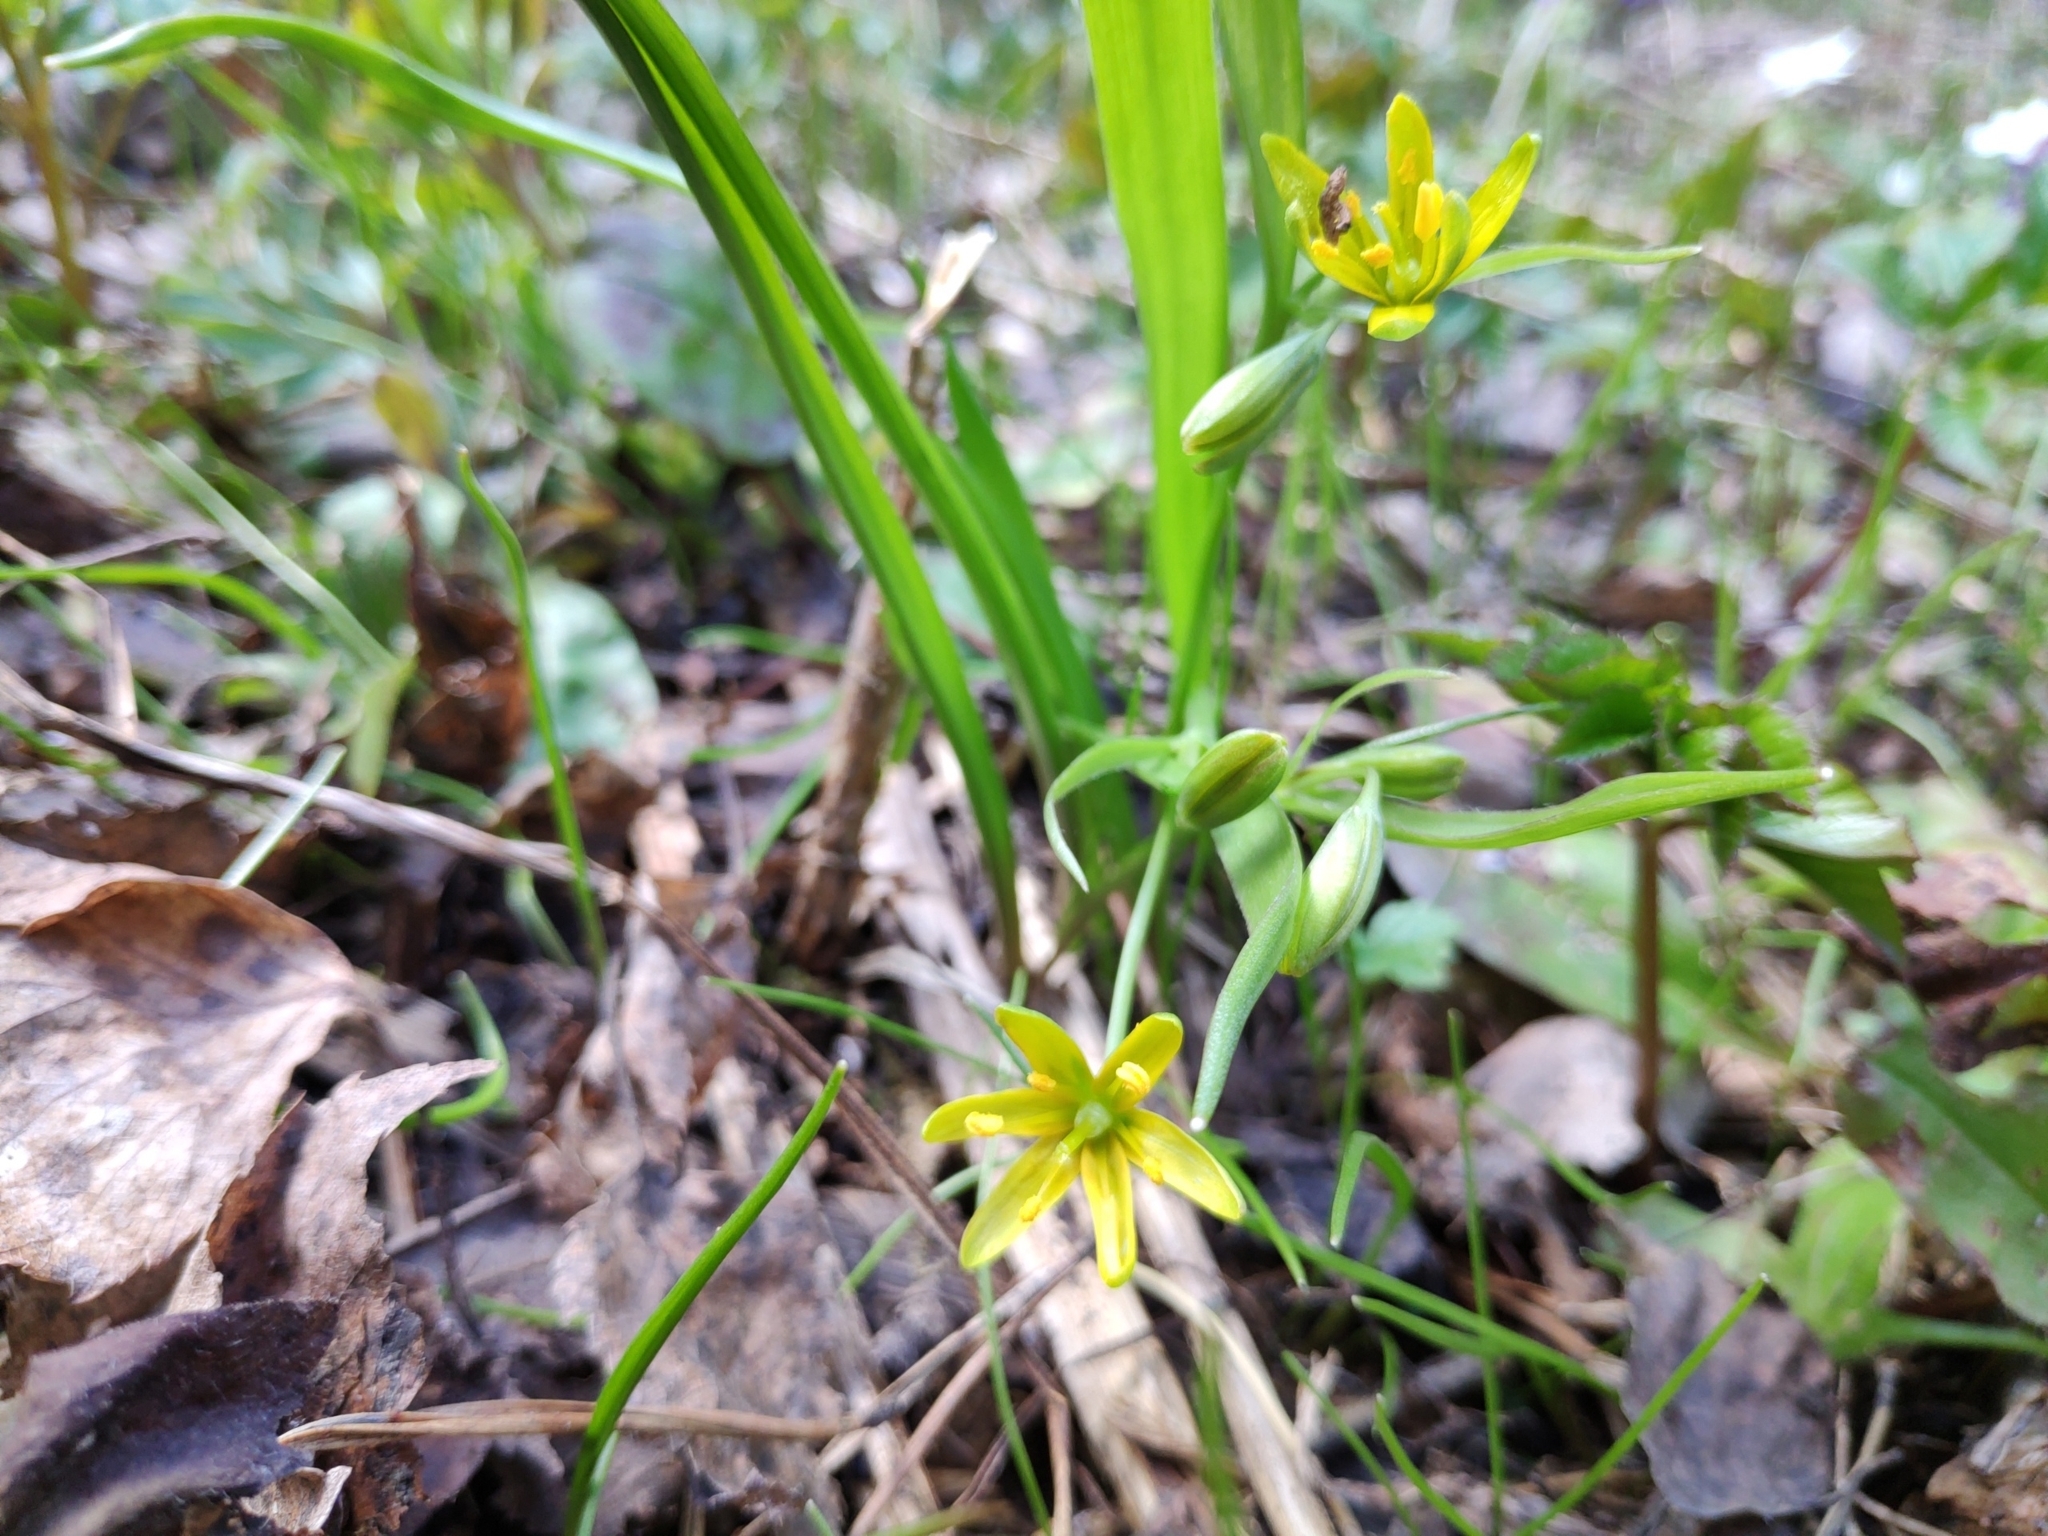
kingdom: Plantae
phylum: Tracheophyta
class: Liliopsida
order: Liliales
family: Liliaceae
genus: Gagea
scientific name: Gagea lutea
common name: Yellow star-of-bethlehem
